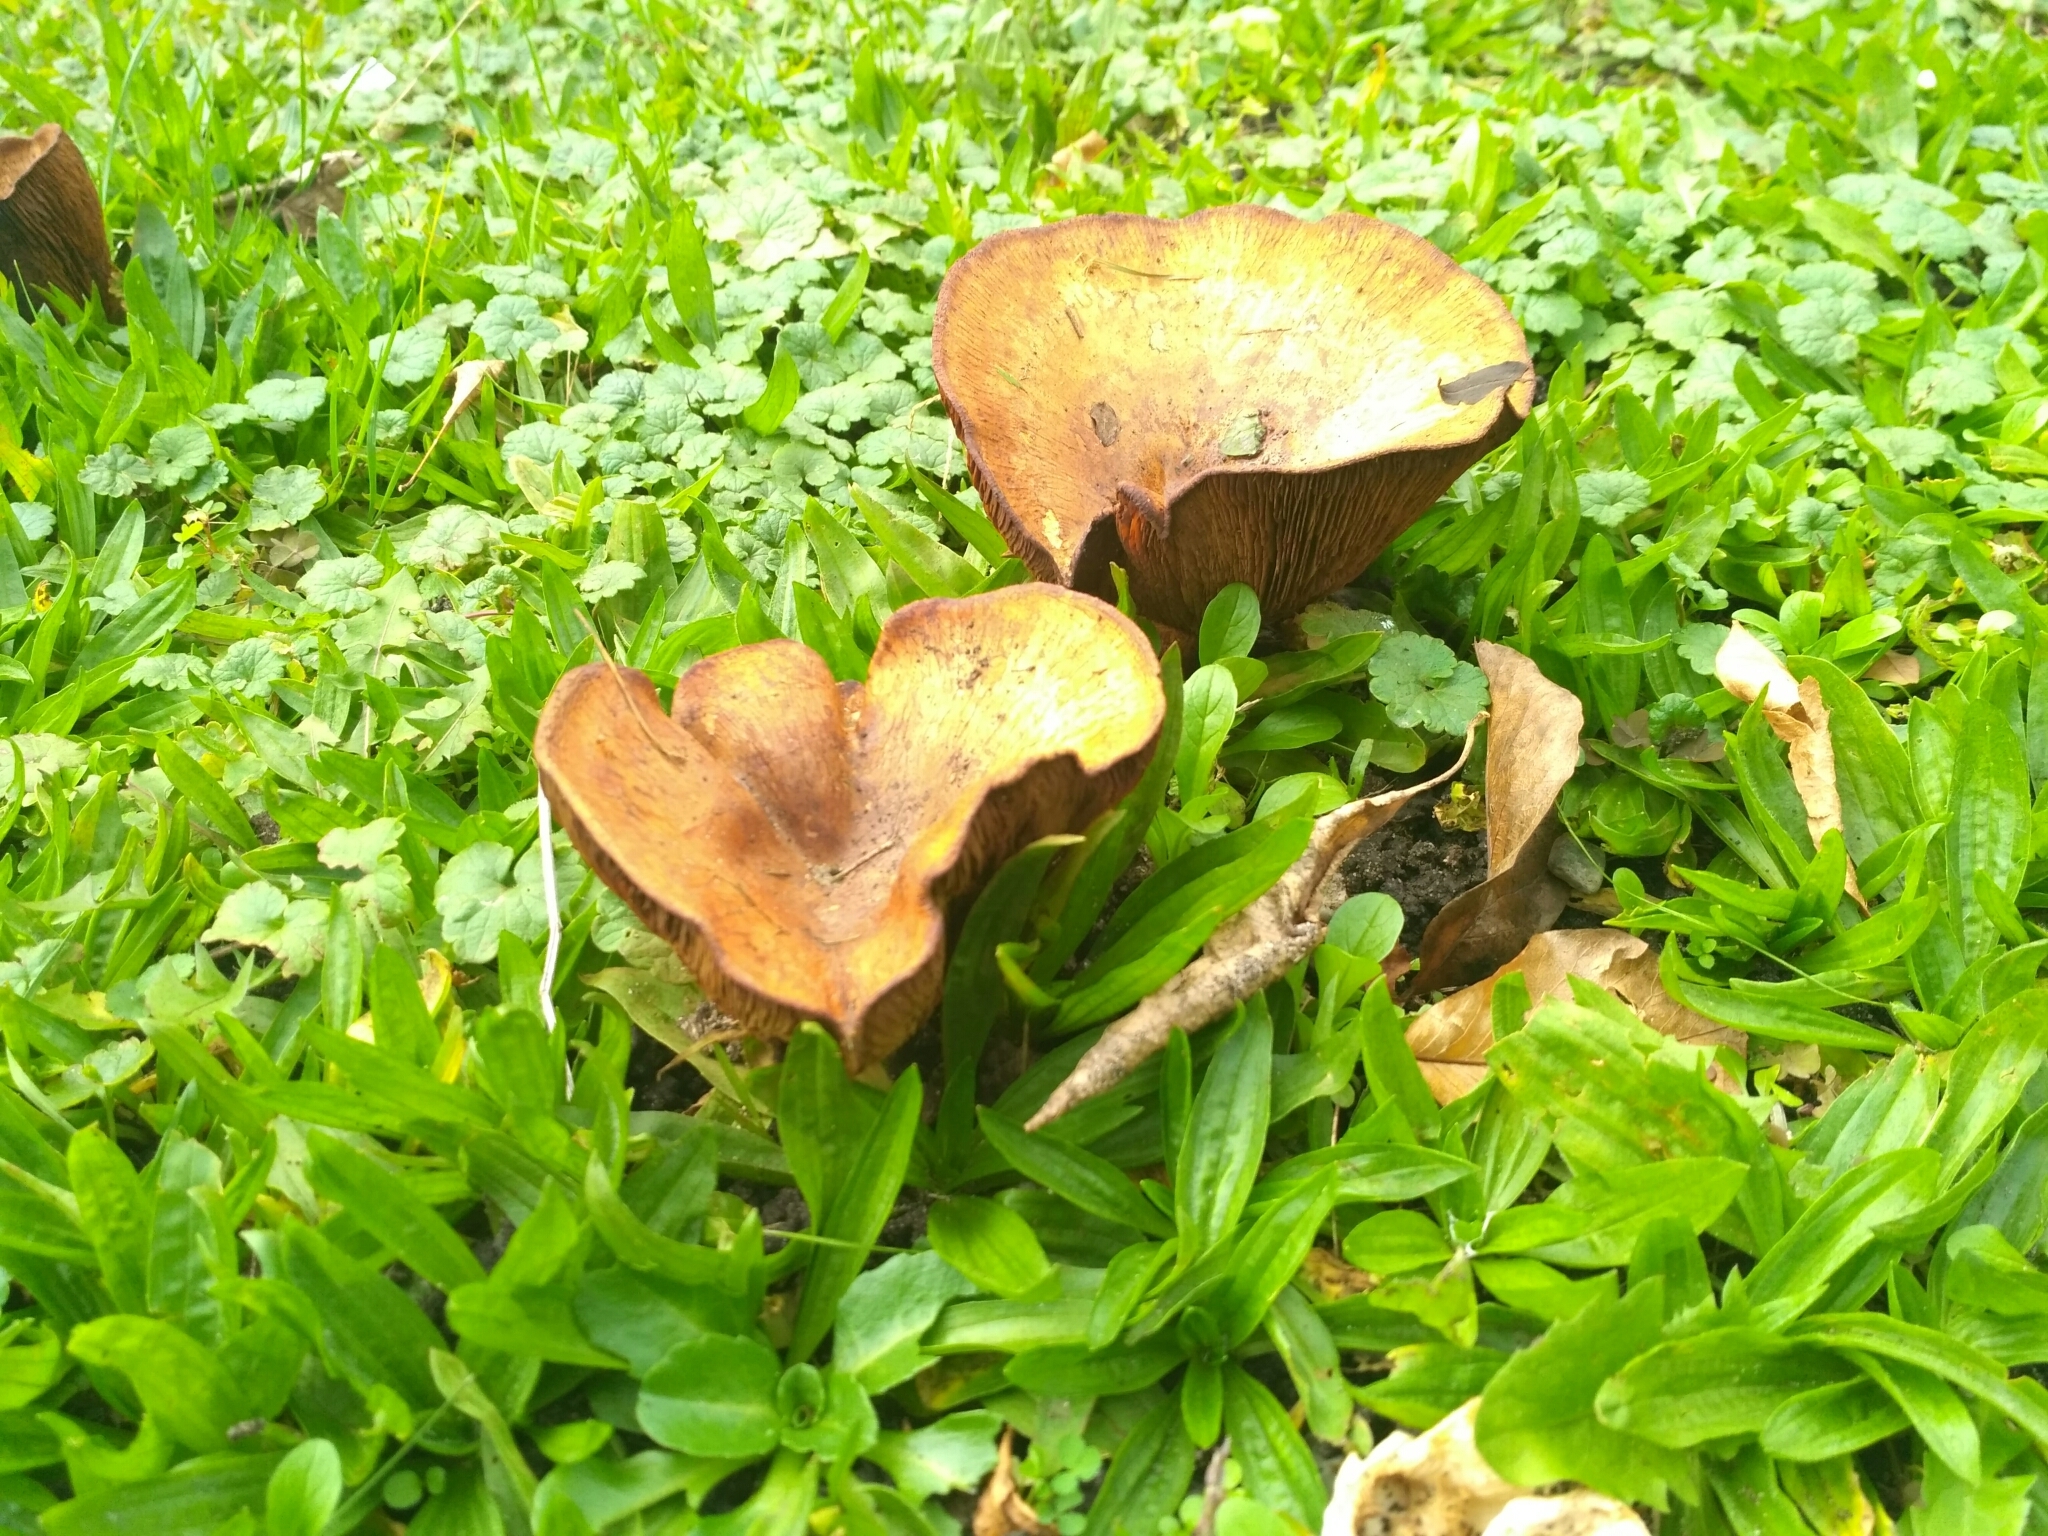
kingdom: Fungi
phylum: Basidiomycota
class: Agaricomycetes
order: Boletales
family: Paxillaceae
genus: Paxillus
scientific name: Paxillus involutus
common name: Brown roll rim
